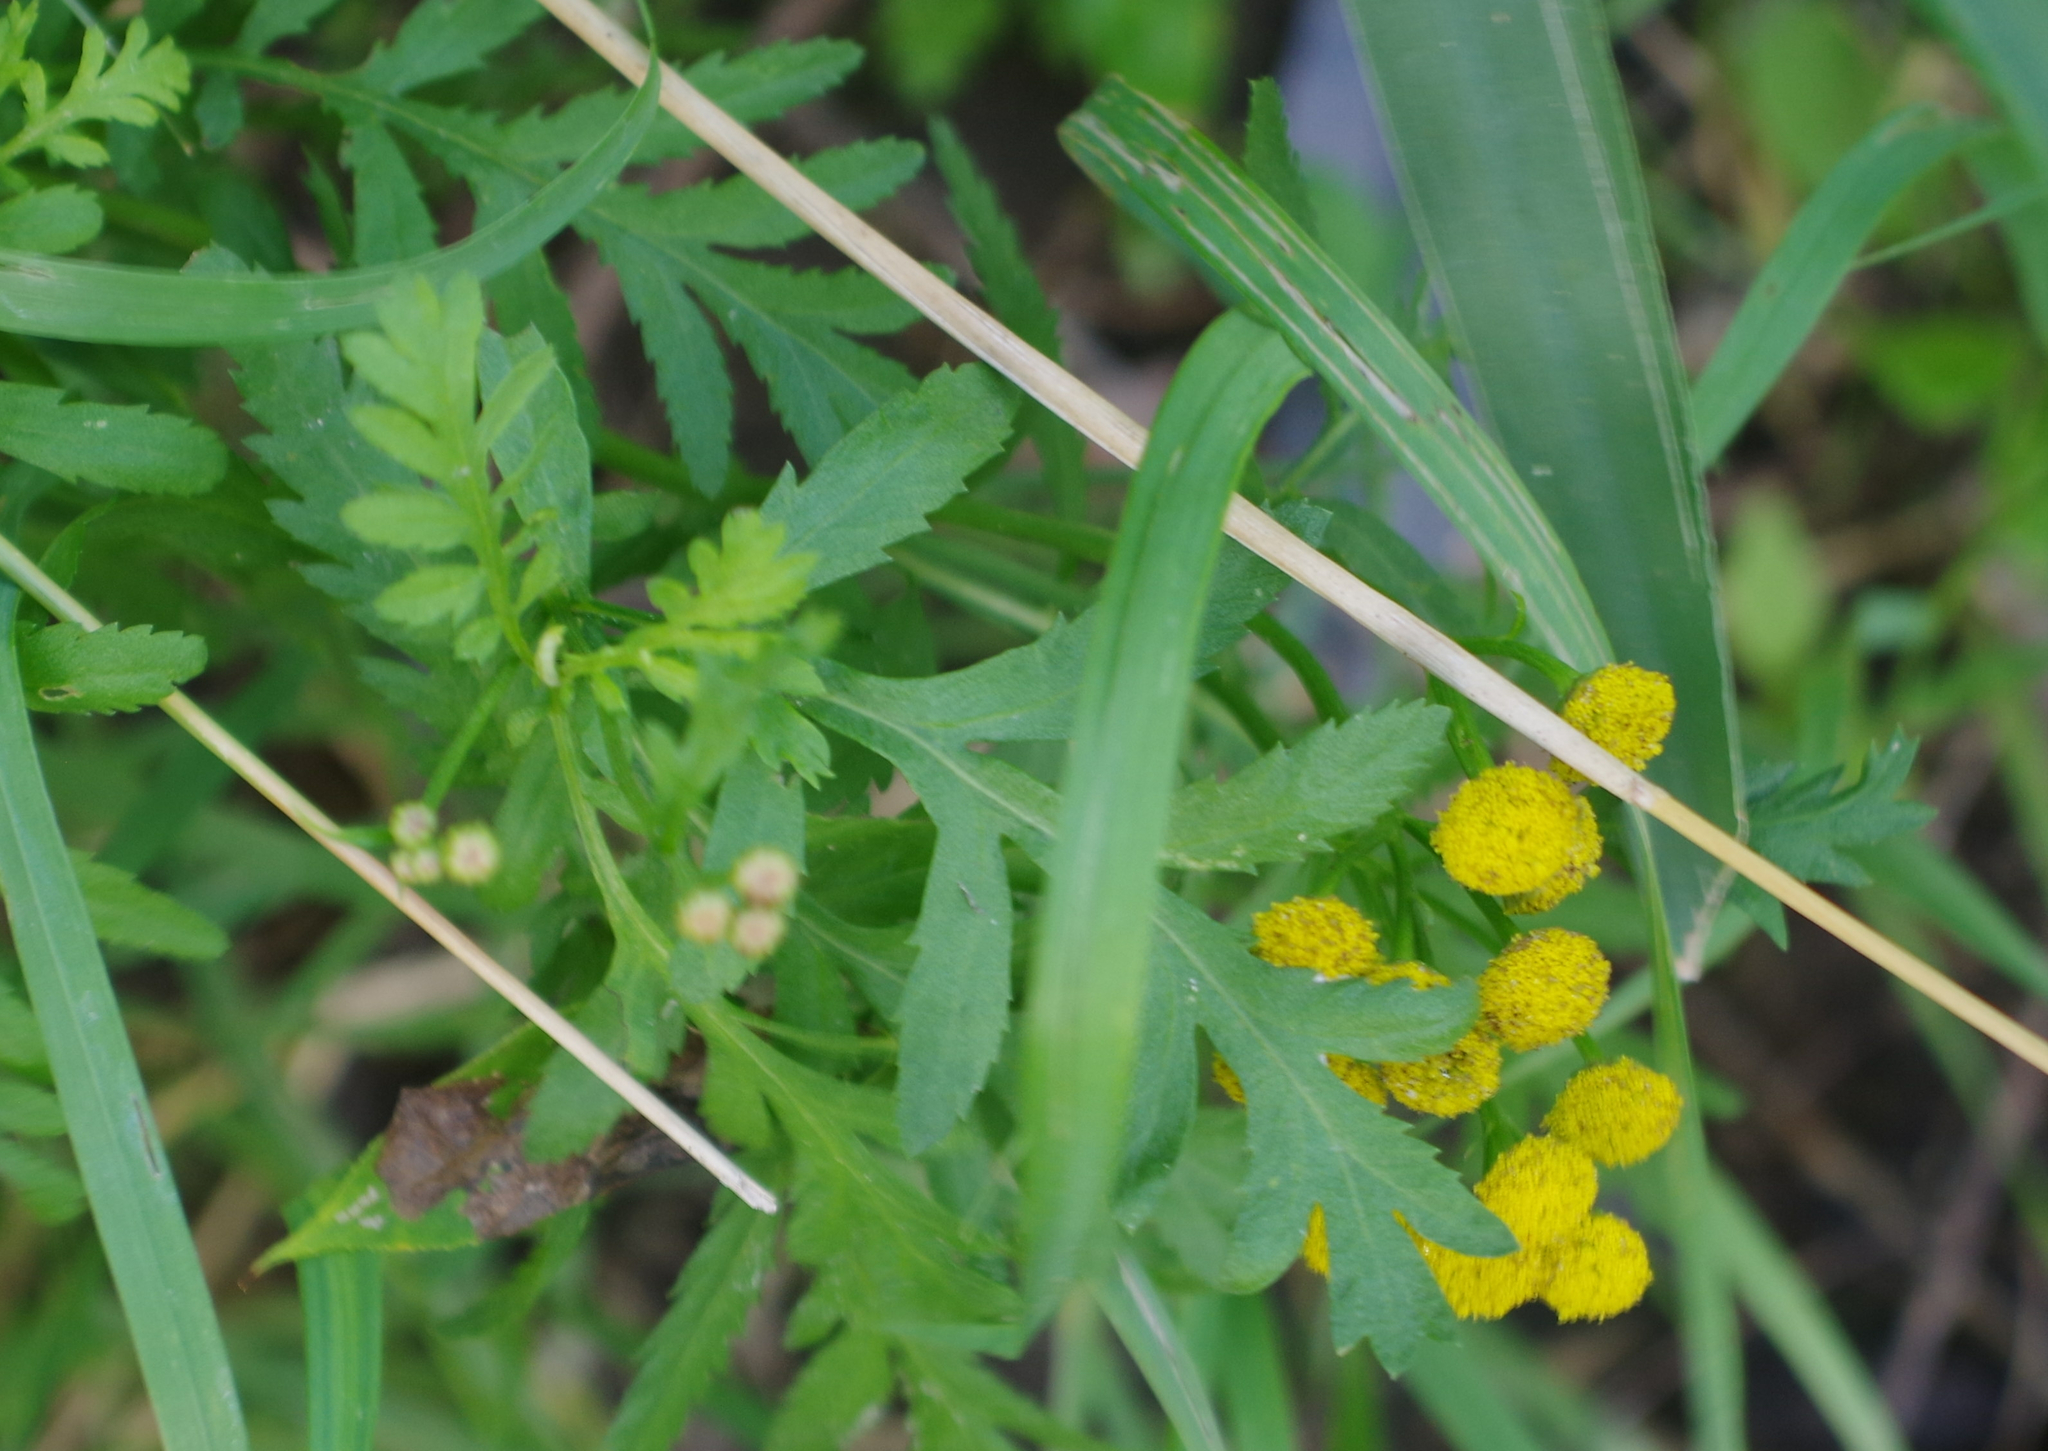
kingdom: Plantae
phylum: Tracheophyta
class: Magnoliopsida
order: Asterales
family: Asteraceae
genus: Tanacetum
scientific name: Tanacetum vulgare
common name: Common tansy
